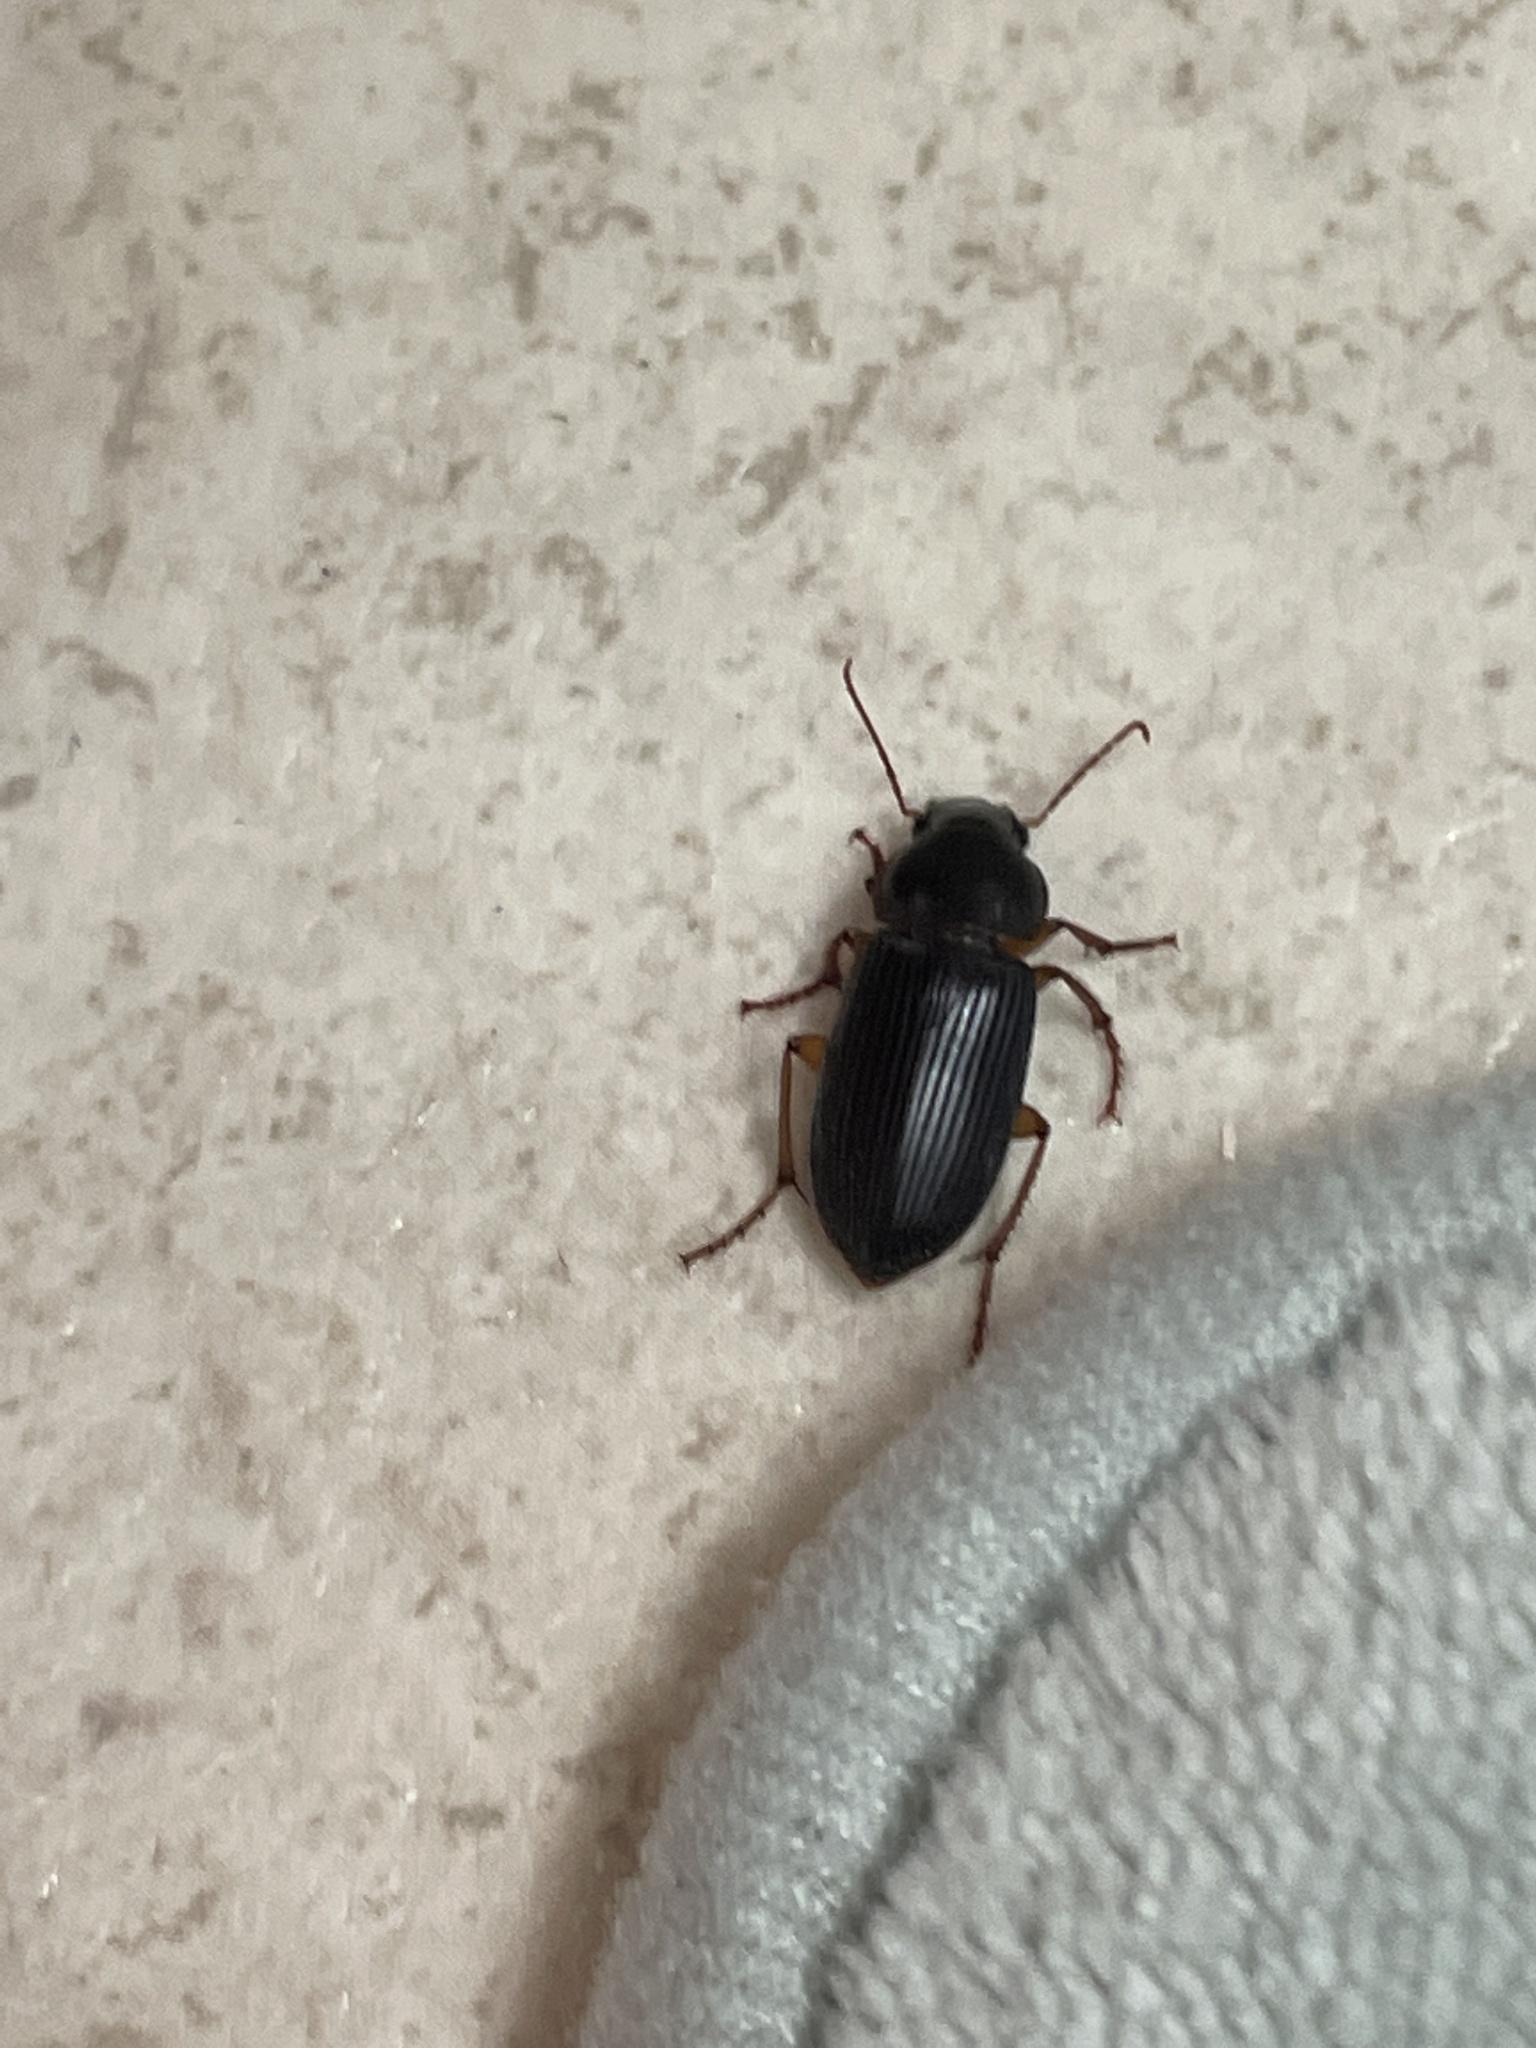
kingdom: Animalia
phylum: Arthropoda
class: Insecta
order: Coleoptera
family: Carabidae
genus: Harpalus
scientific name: Harpalus pensylvanicus
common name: Pennsylvania dingy ground beetle
